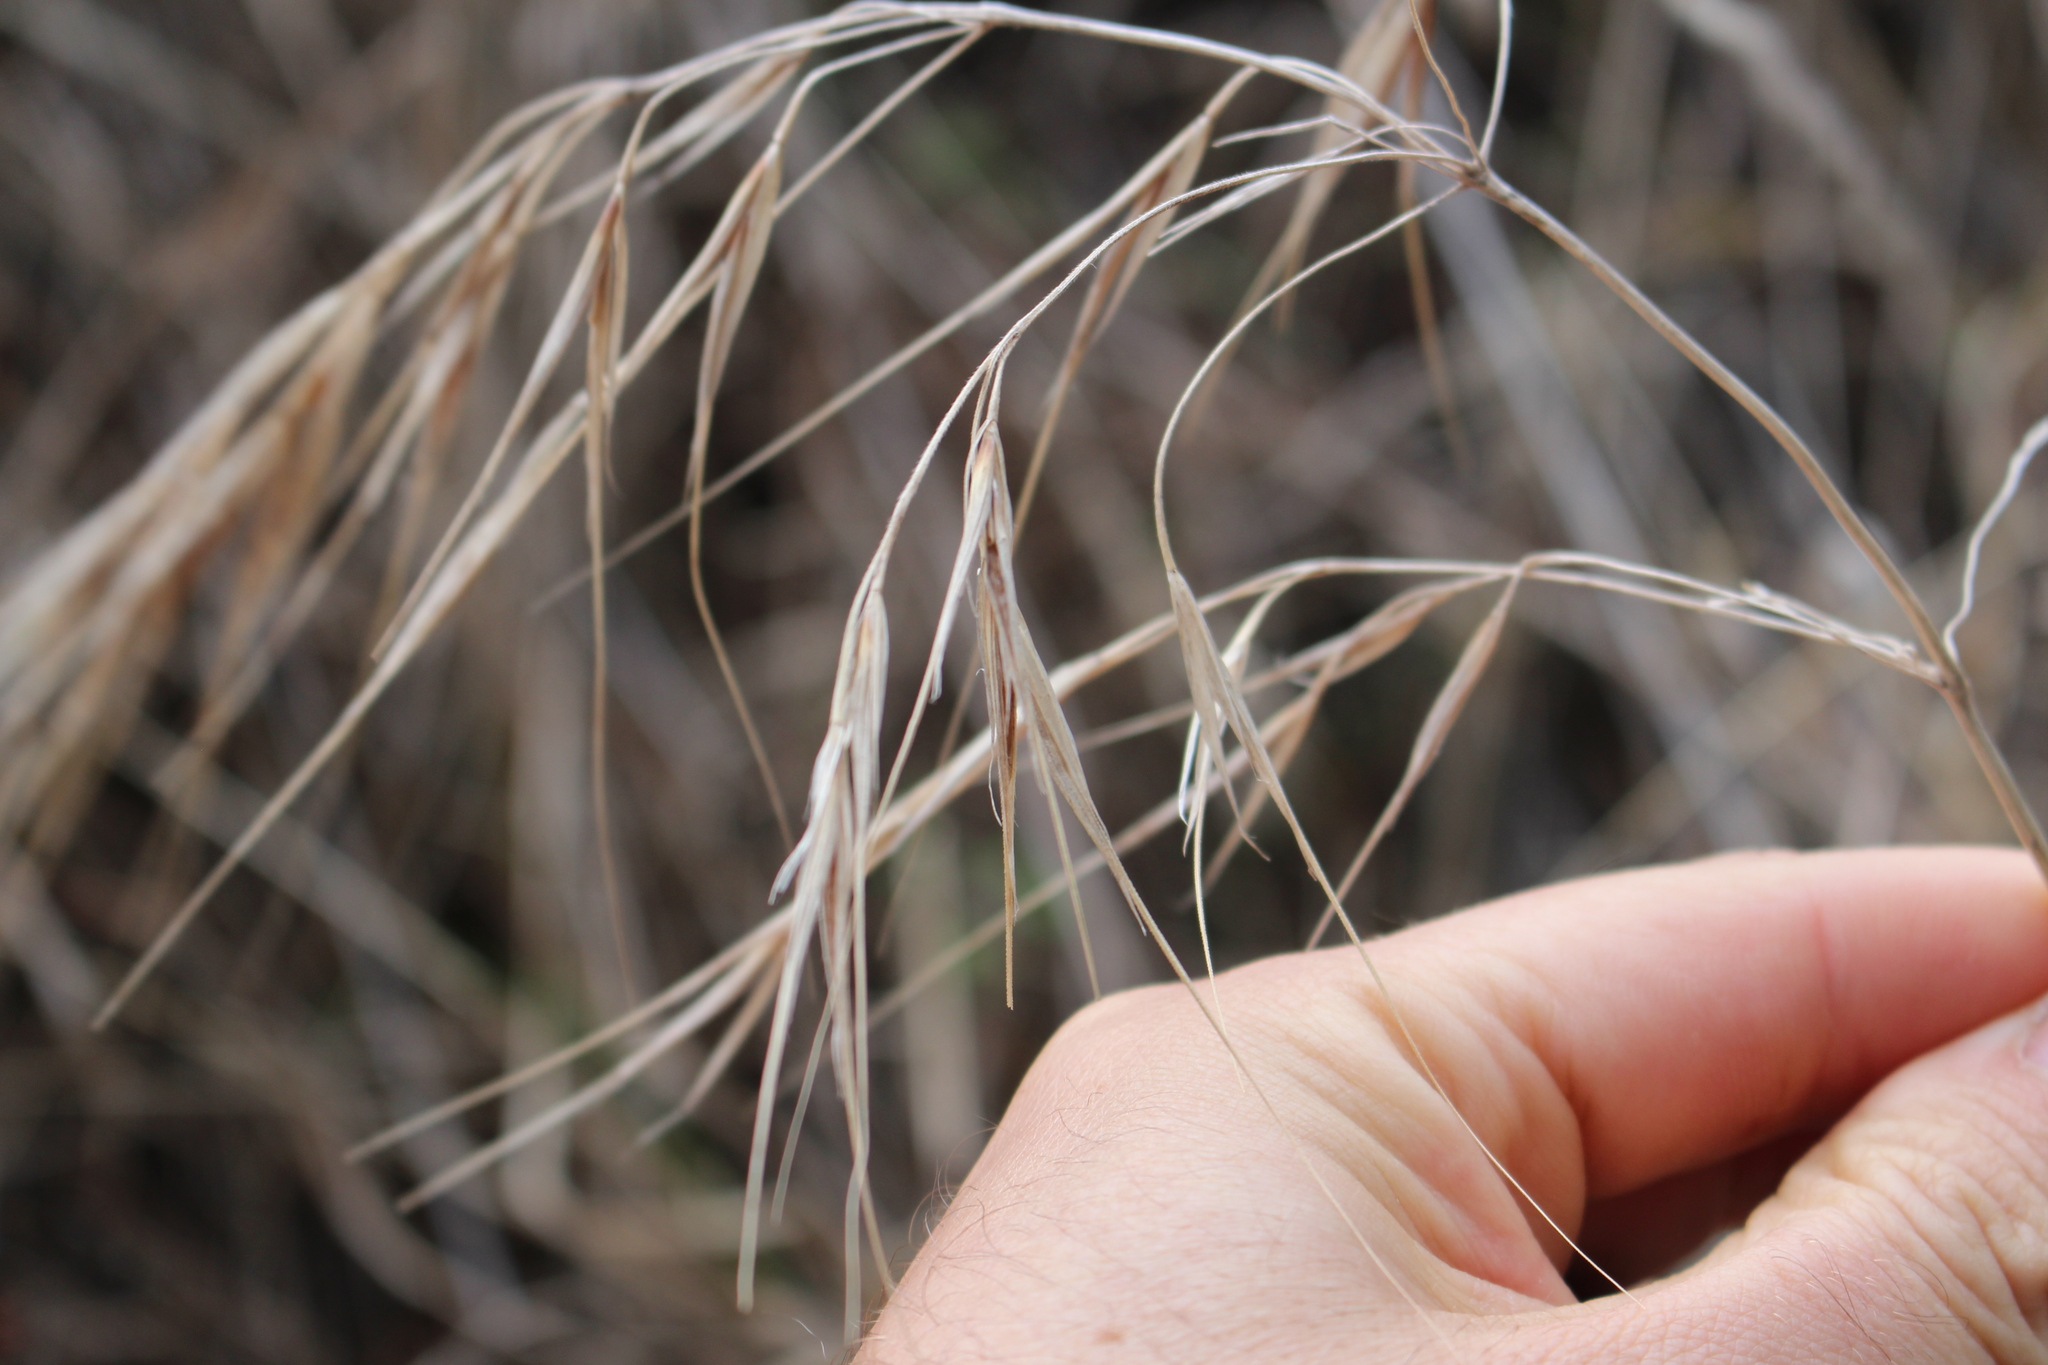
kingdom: Plantae
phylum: Tracheophyta
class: Liliopsida
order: Poales
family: Poaceae
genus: Bromus
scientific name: Bromus diandrus
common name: Ripgut brome
